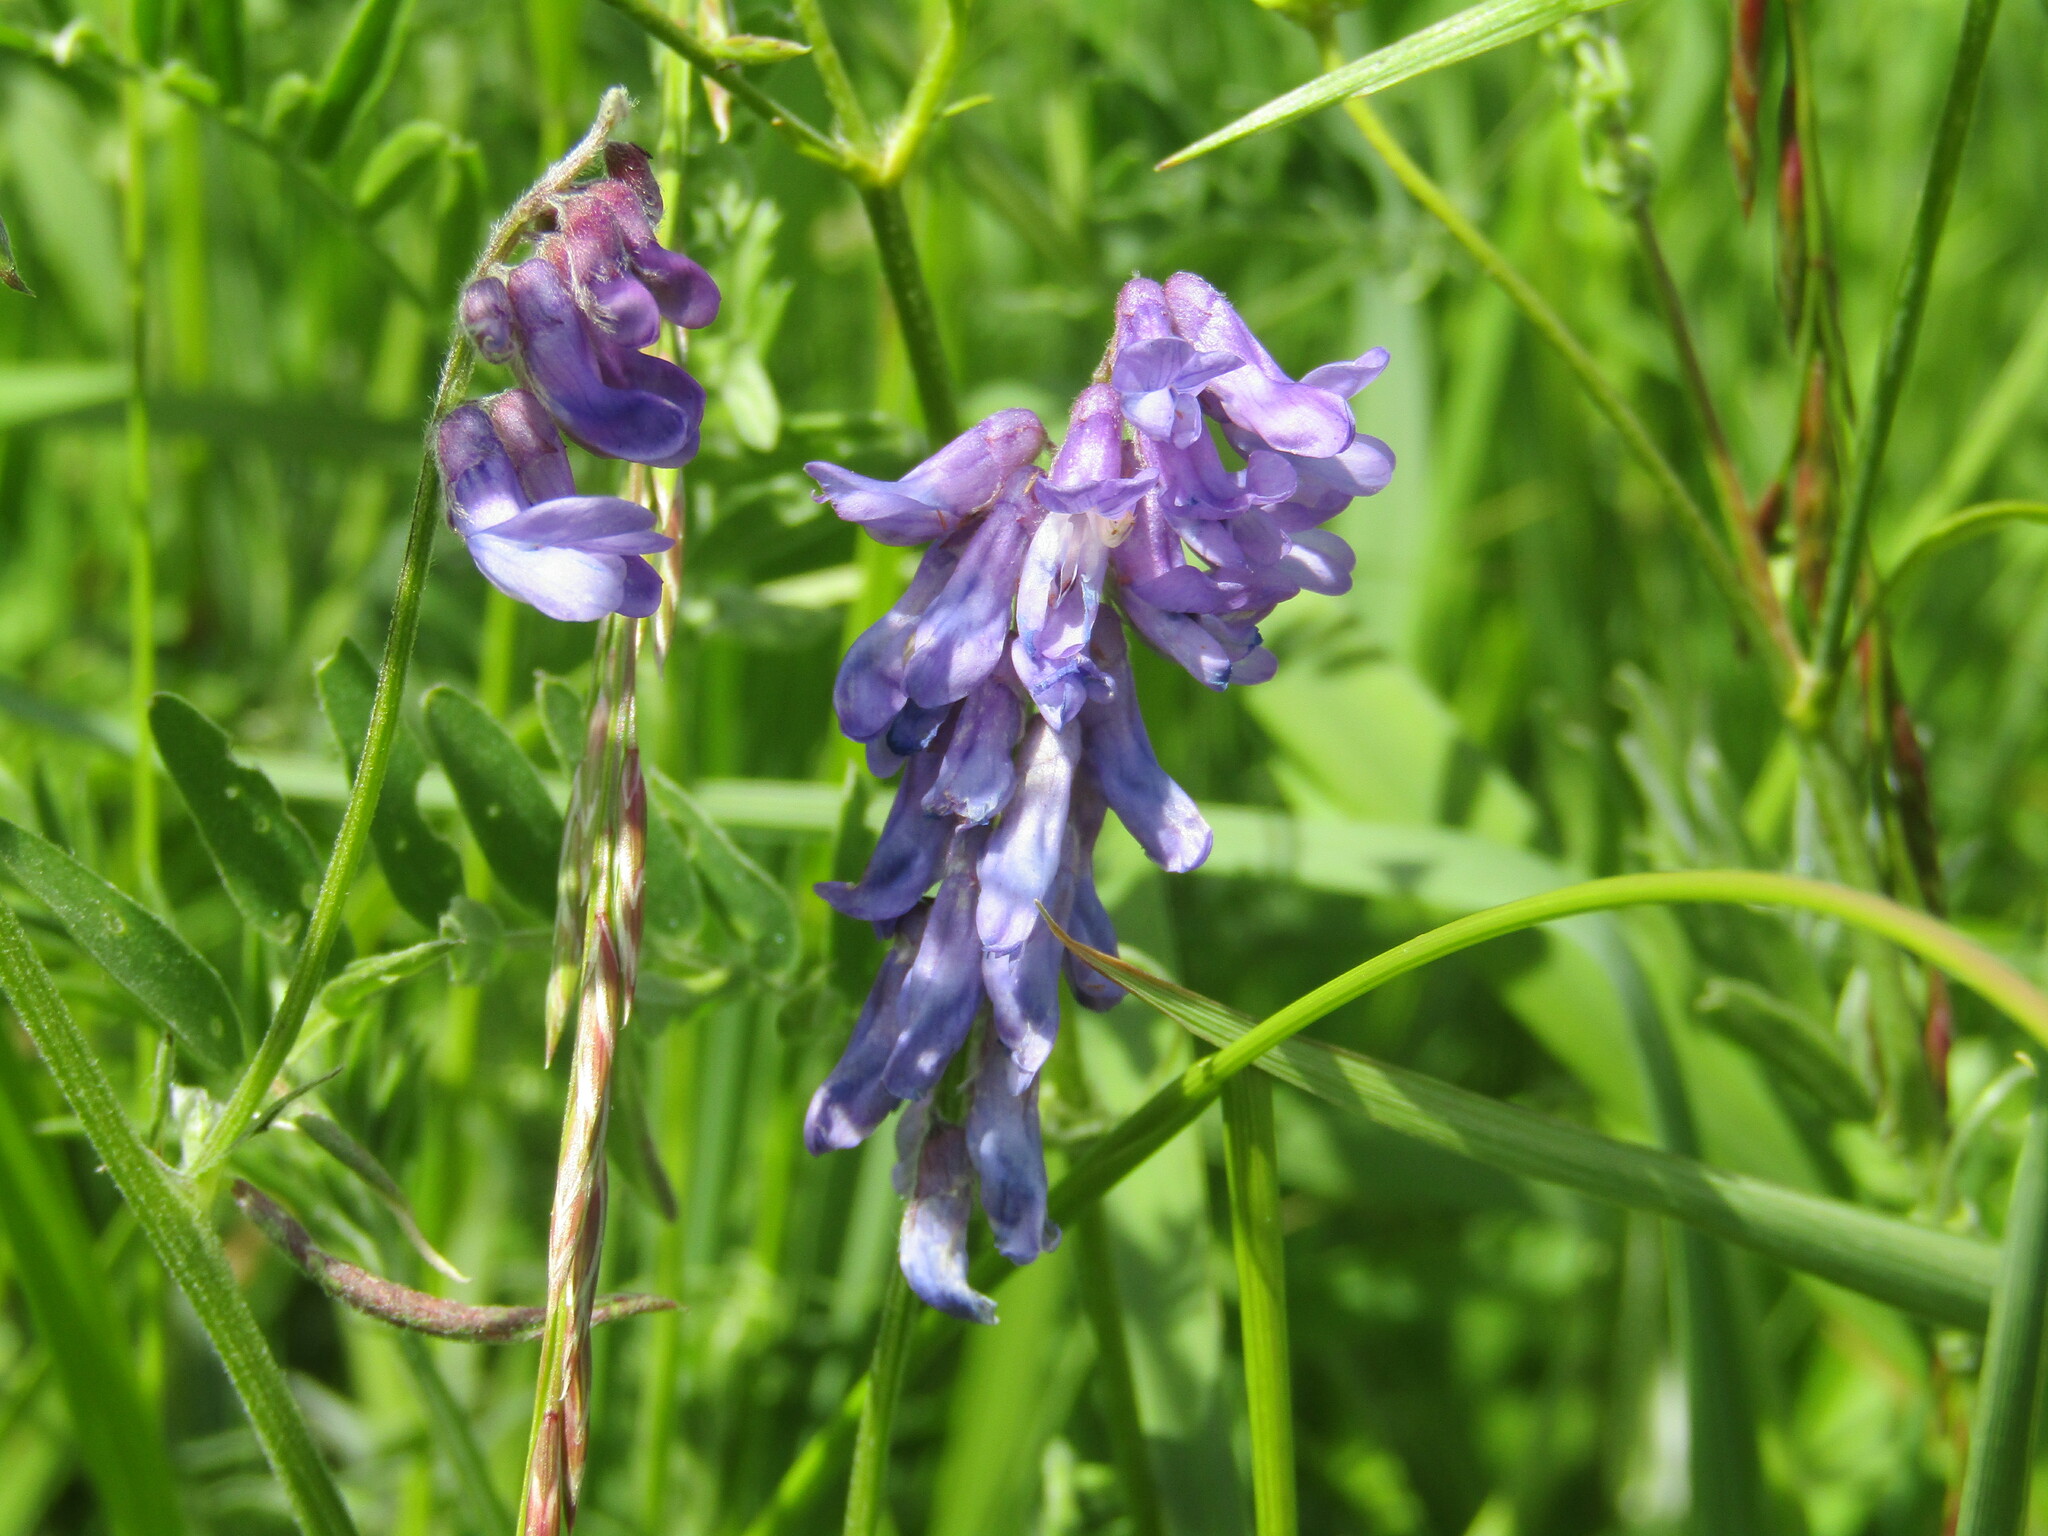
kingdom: Plantae
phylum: Tracheophyta
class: Magnoliopsida
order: Fabales
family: Fabaceae
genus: Vicia
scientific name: Vicia cracca
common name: Bird vetch
